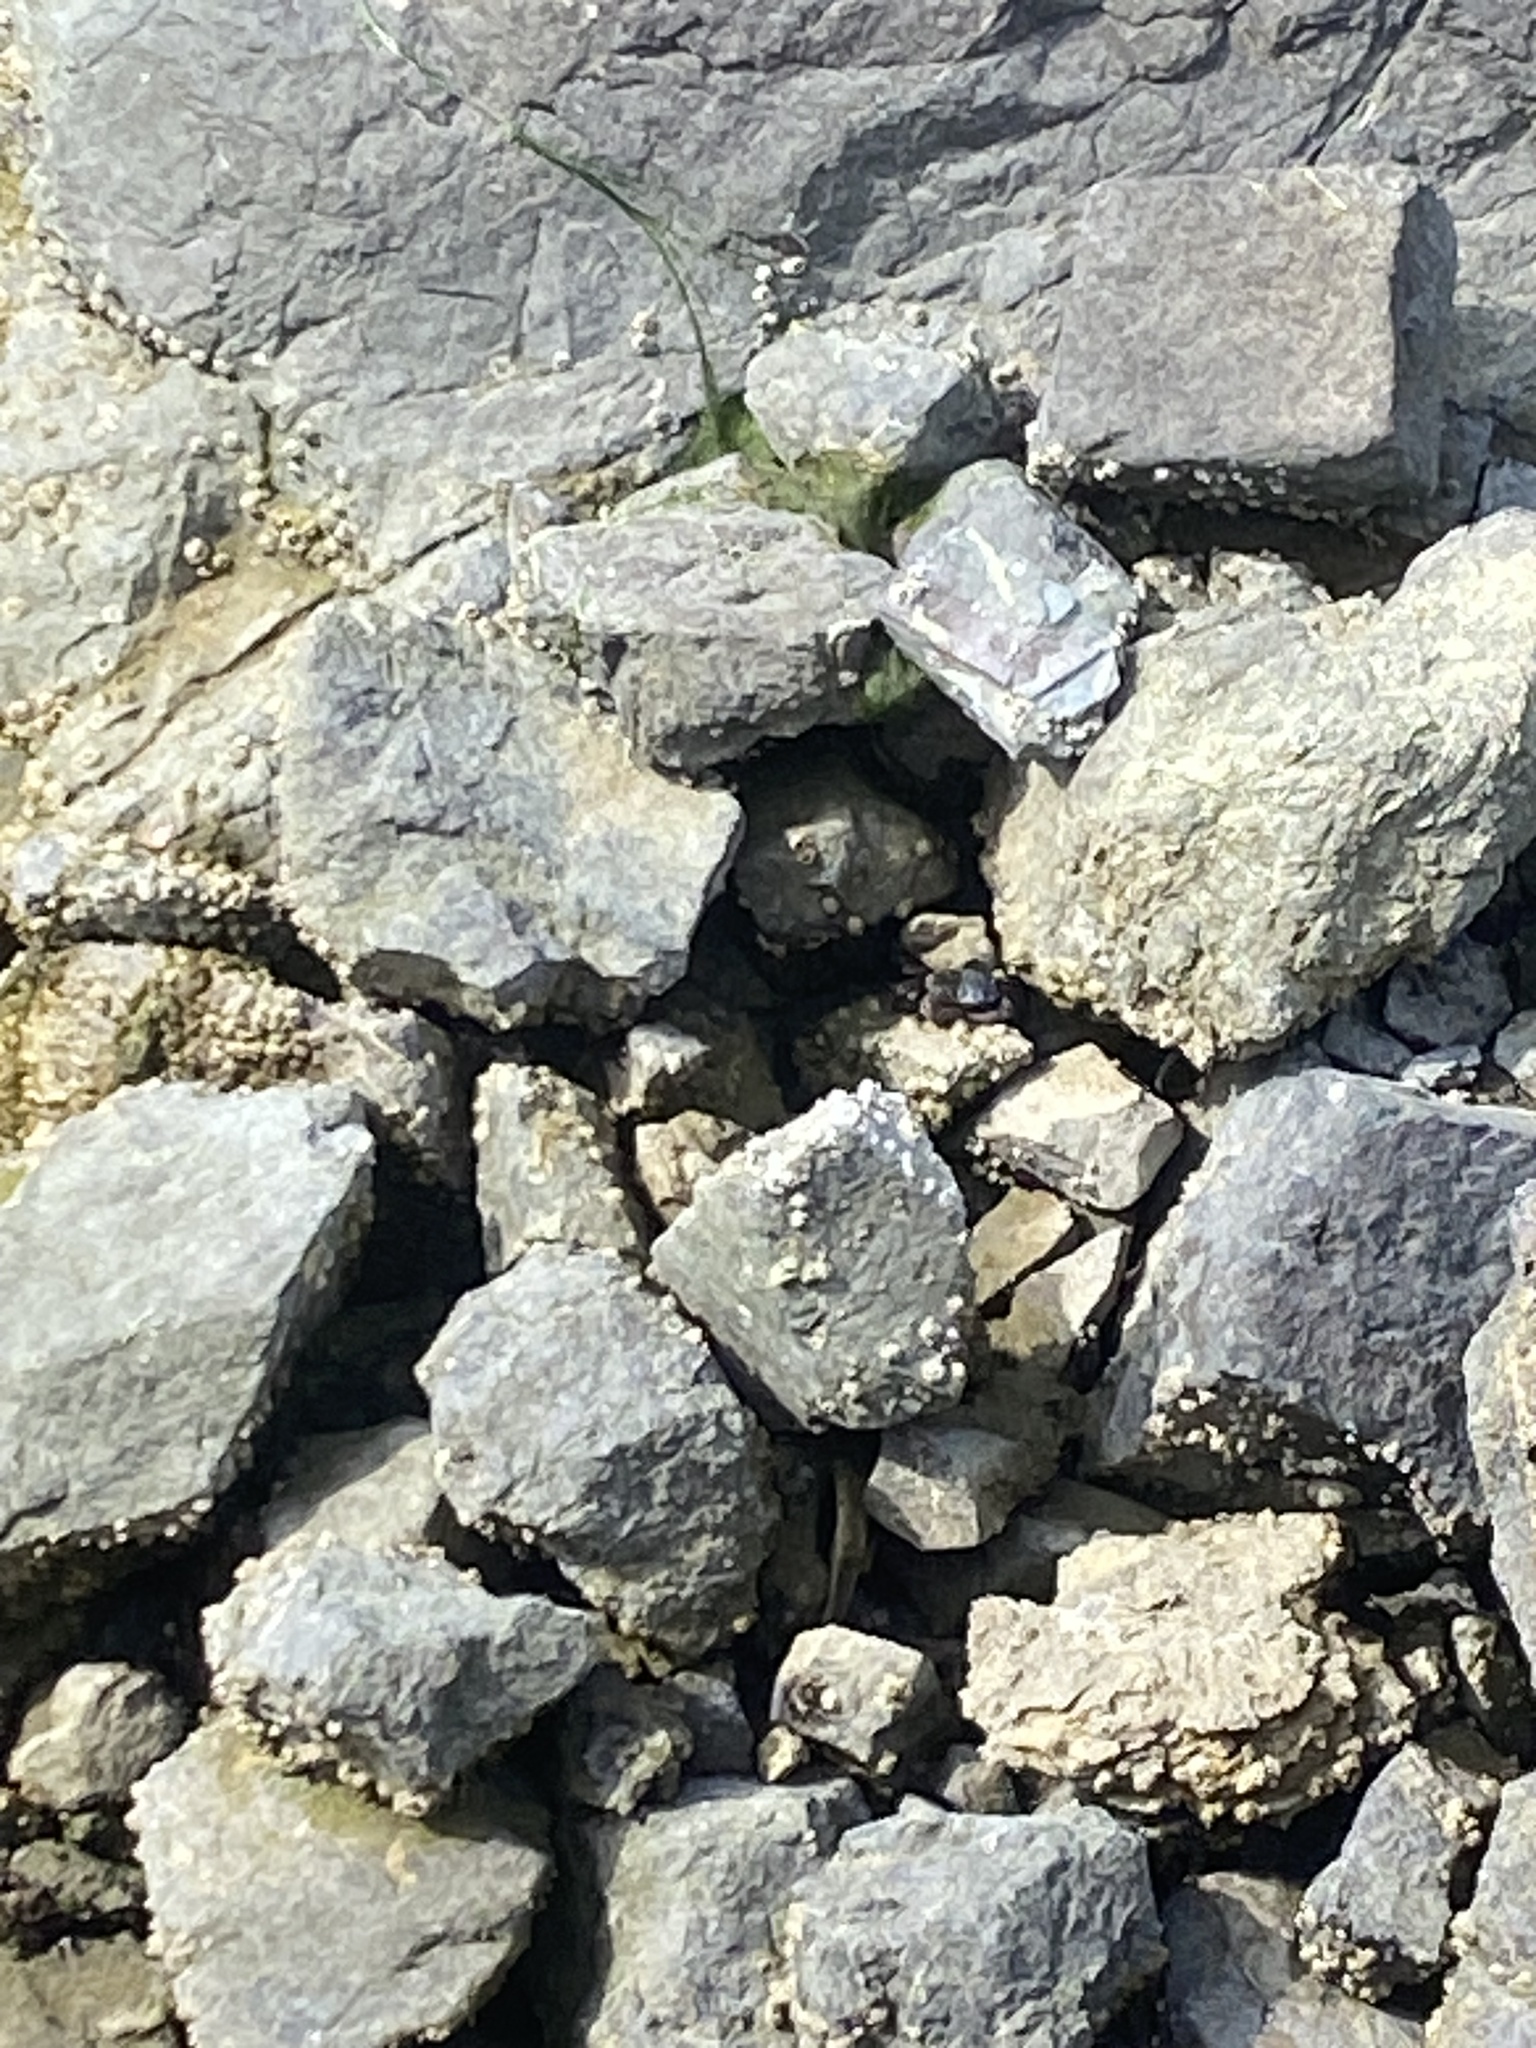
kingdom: Animalia
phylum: Arthropoda
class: Malacostraca
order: Decapoda
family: Grapsidae
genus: Pachygrapsus
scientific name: Pachygrapsus crassipes
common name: Striped shore crab
